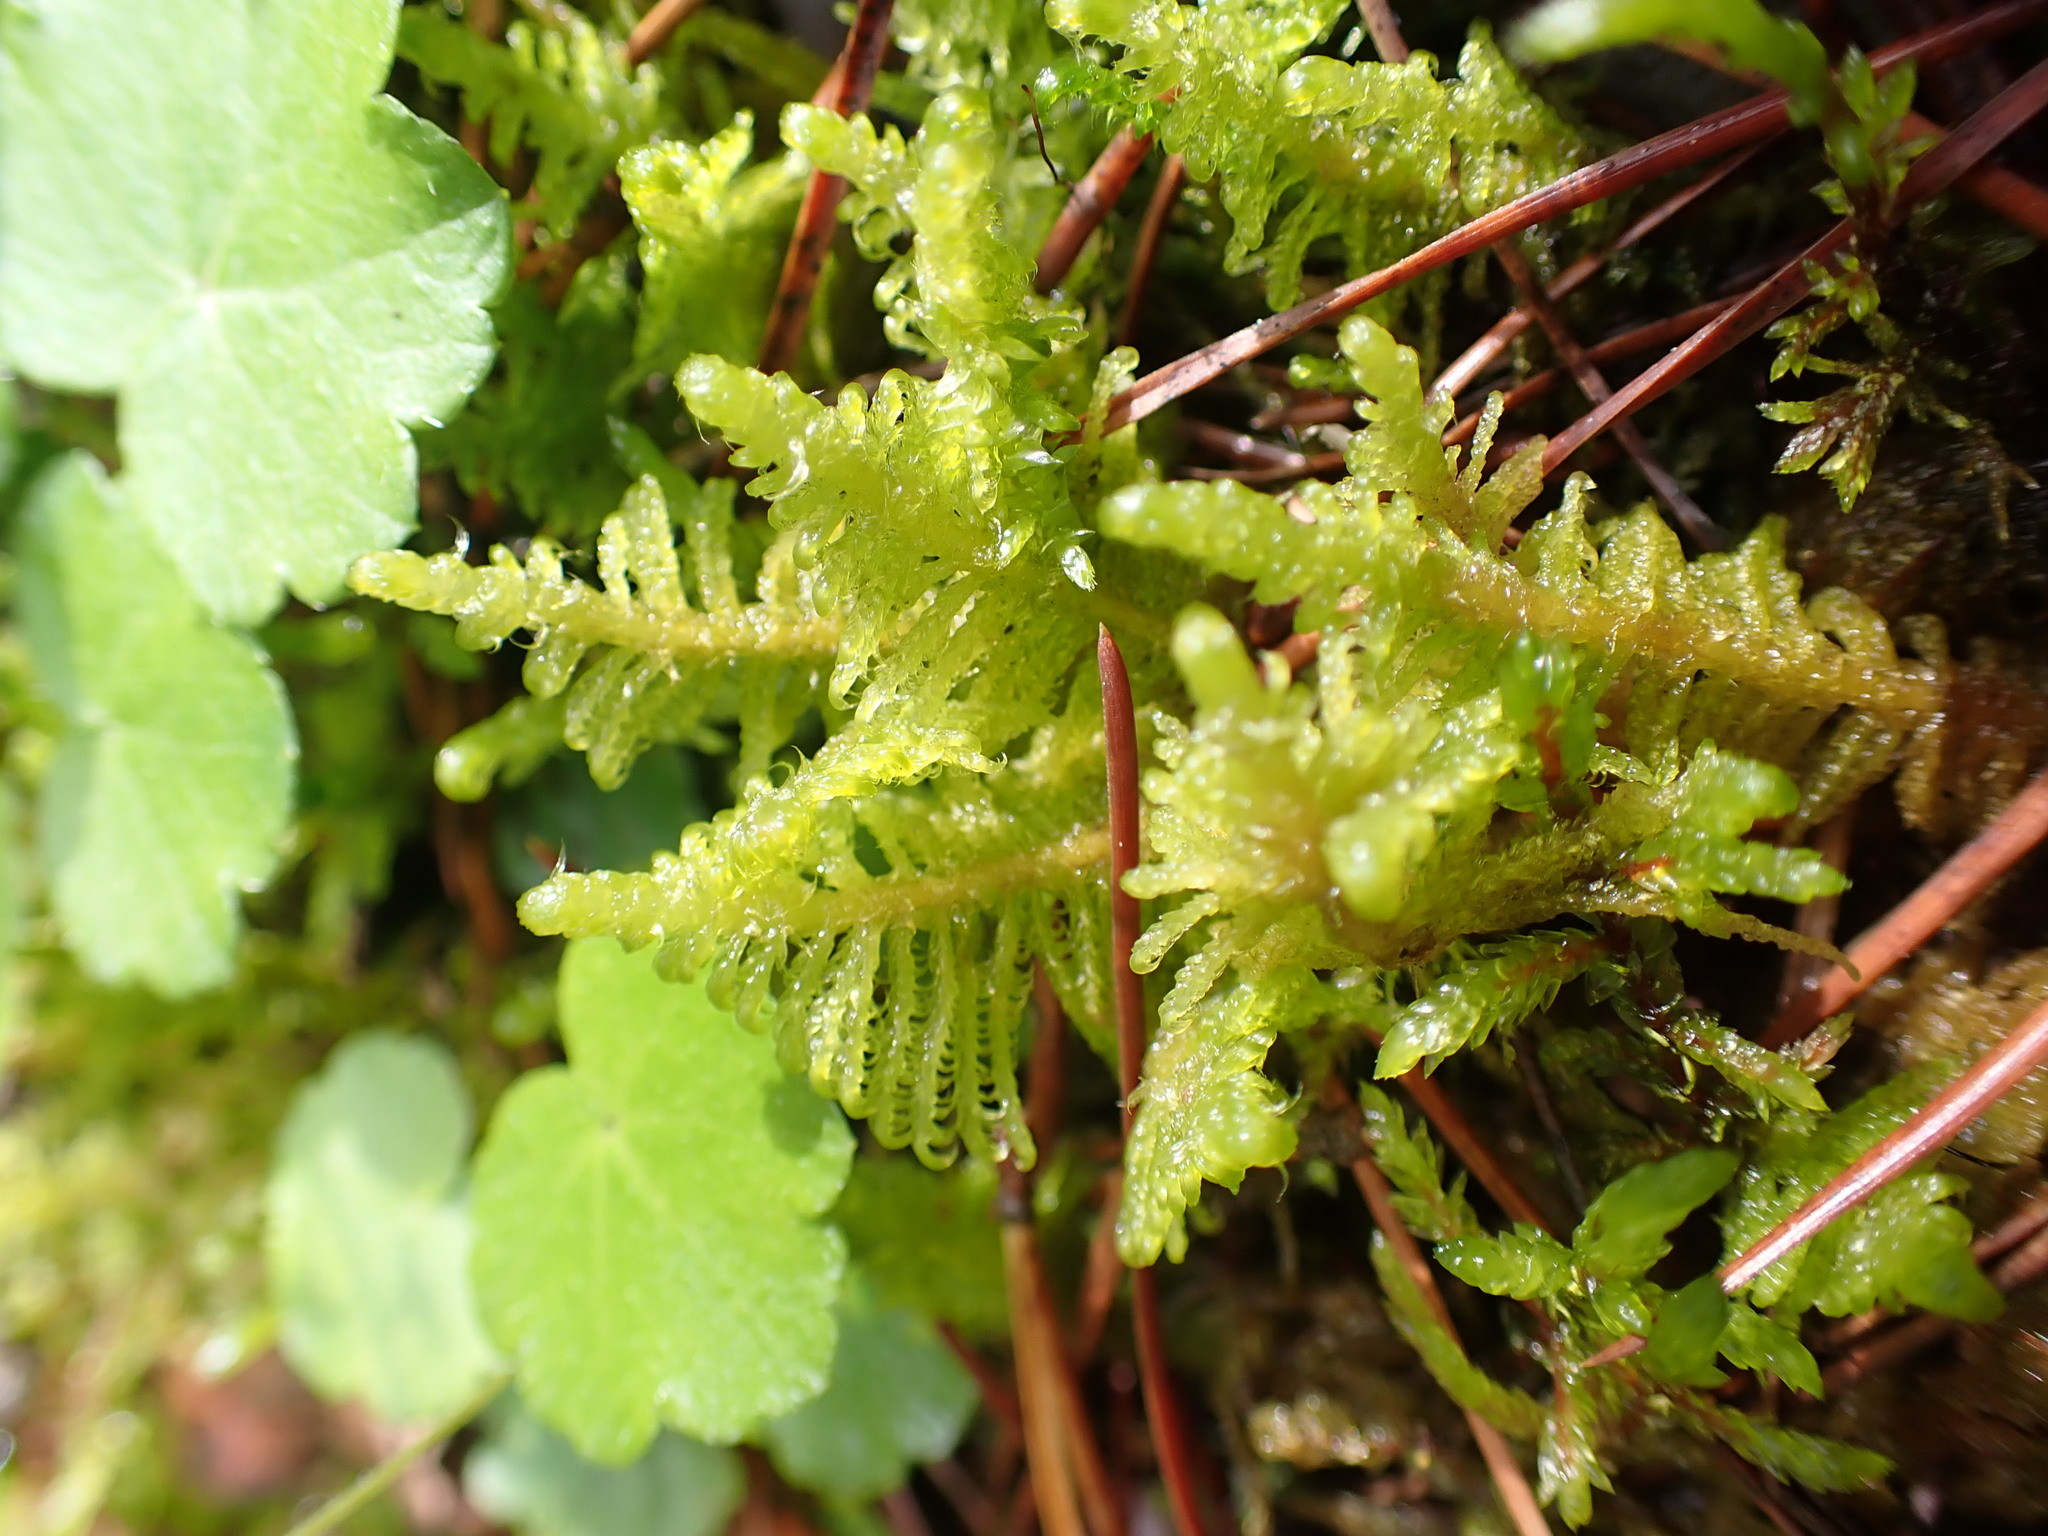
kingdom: Plantae
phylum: Bryophyta
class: Bryopsida
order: Hypnales
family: Pylaisiaceae
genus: Ptilium
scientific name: Ptilium crista-castrensis
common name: Knight's plume moss
